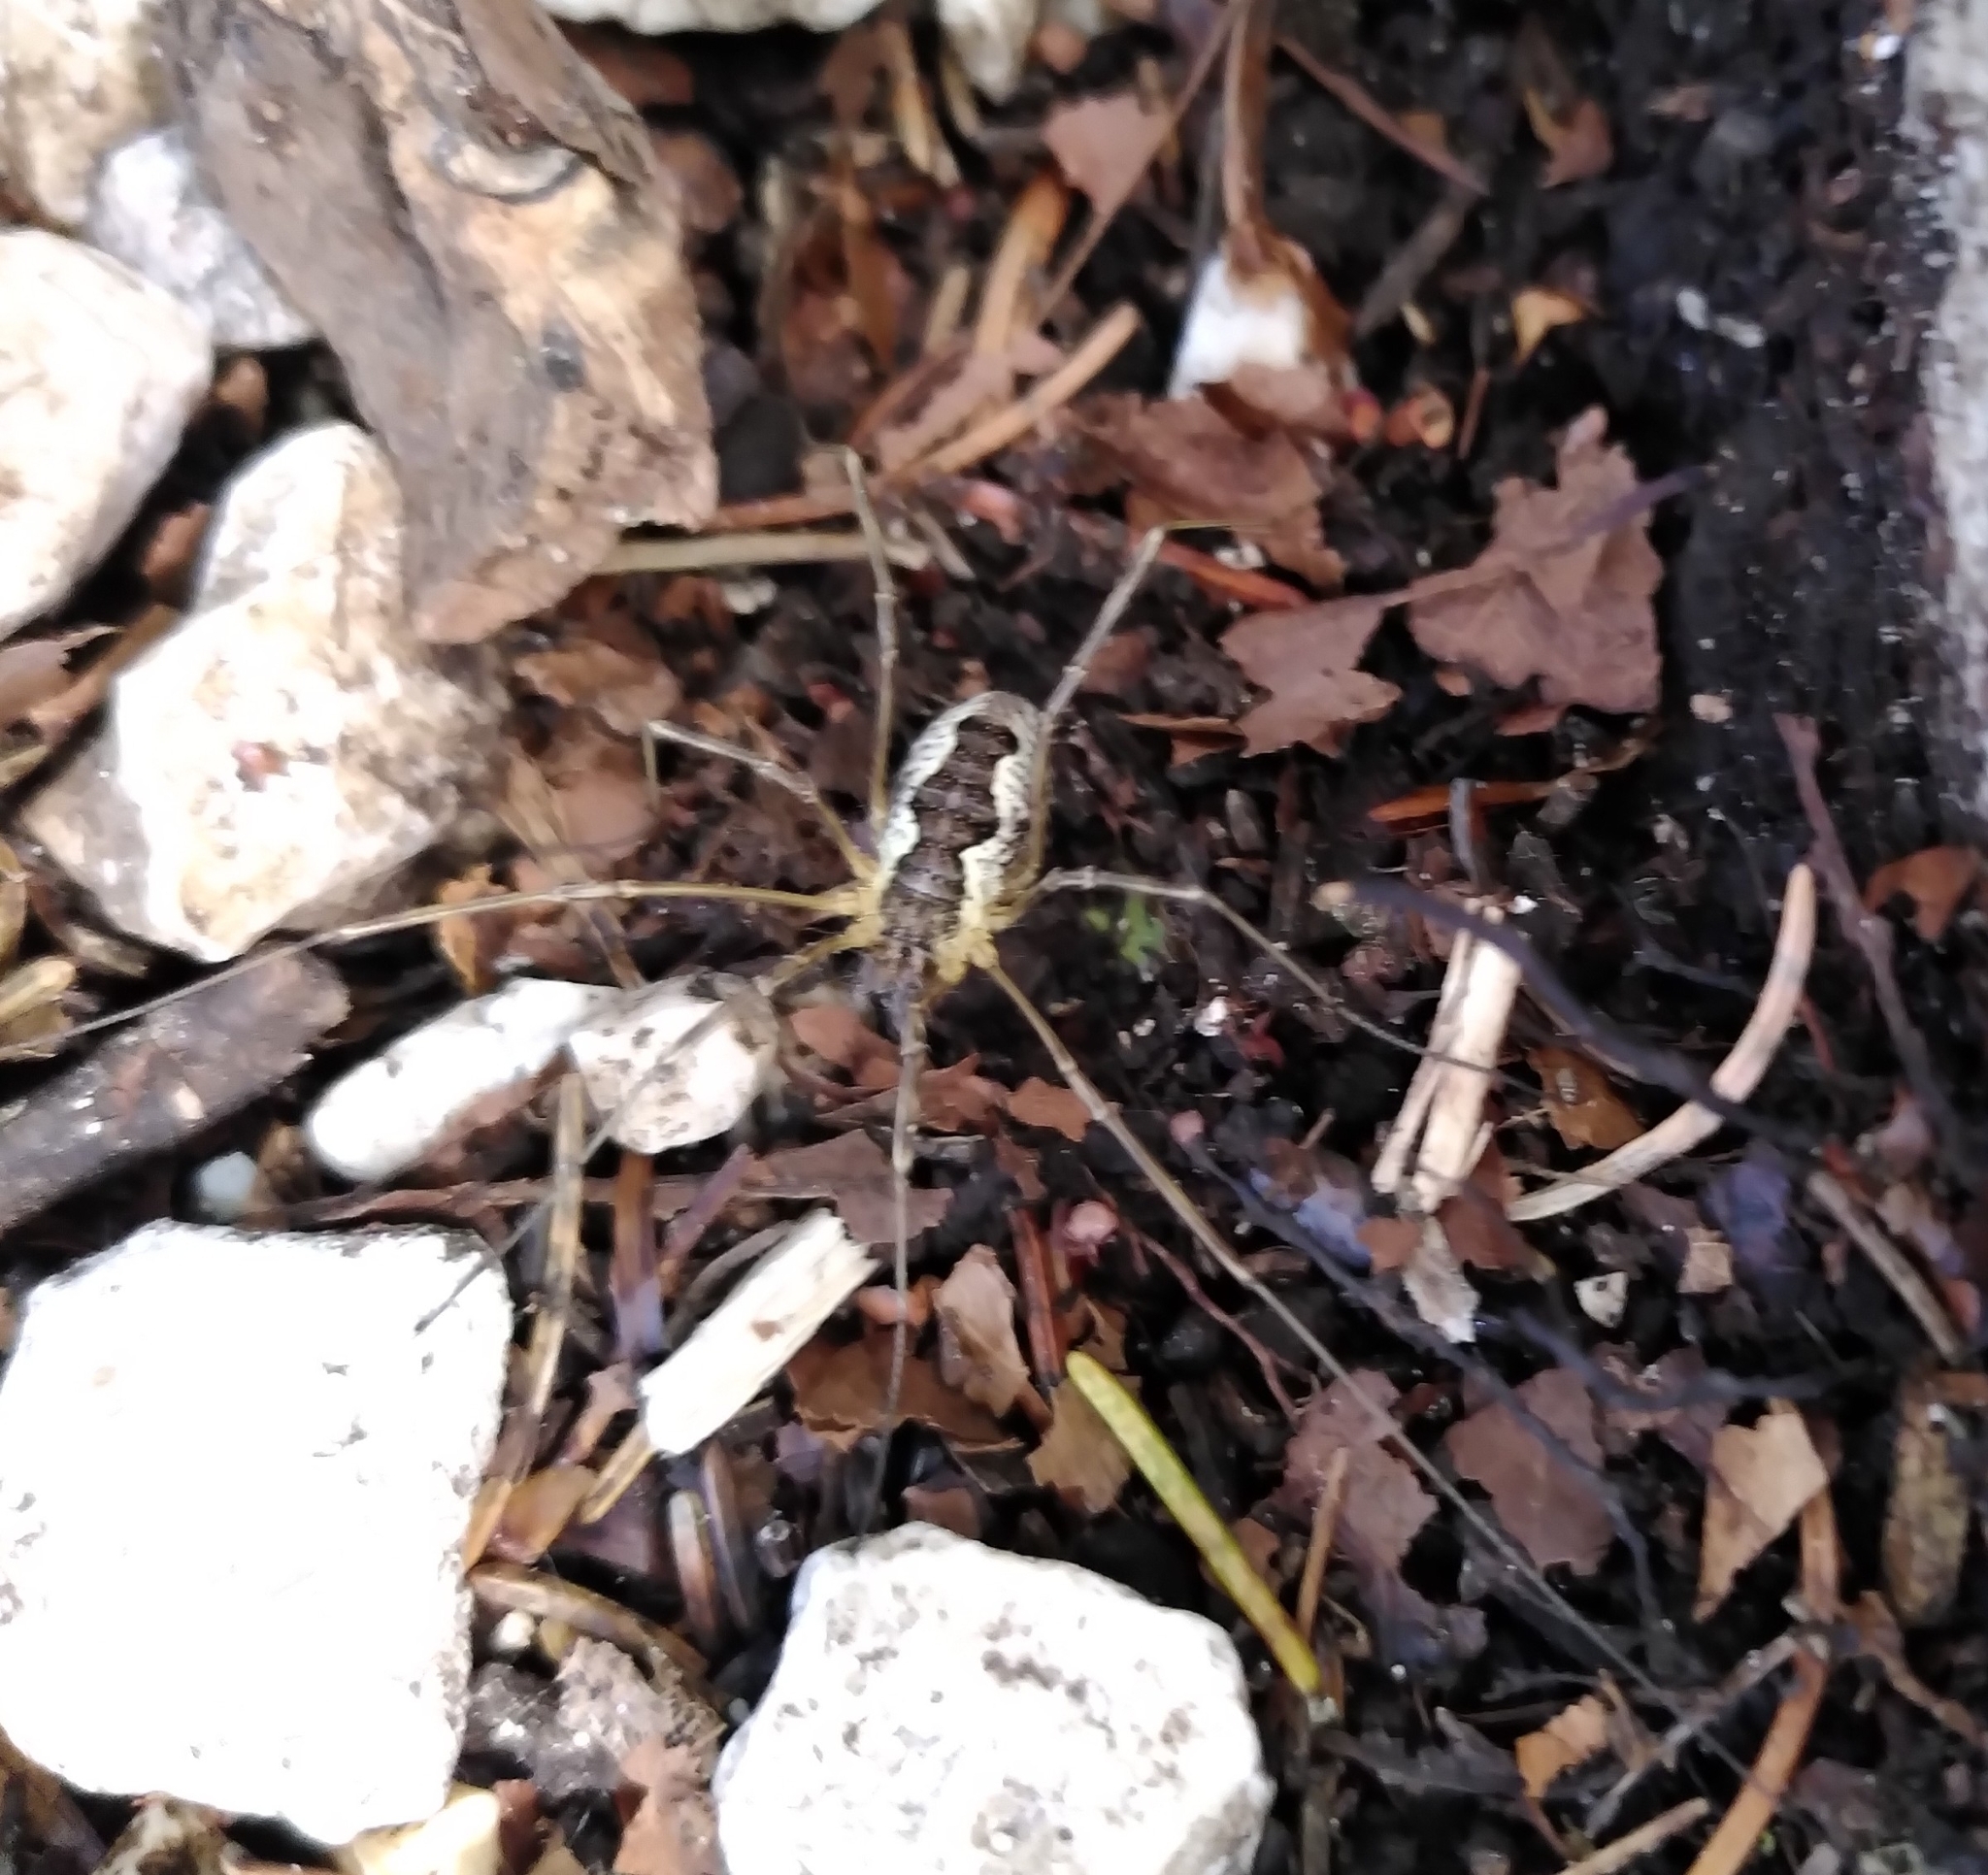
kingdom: Animalia
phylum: Arthropoda
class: Arachnida
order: Opiliones
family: Phalangiidae
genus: Mitopus
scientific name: Mitopus morio
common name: Saddleback harvestman
